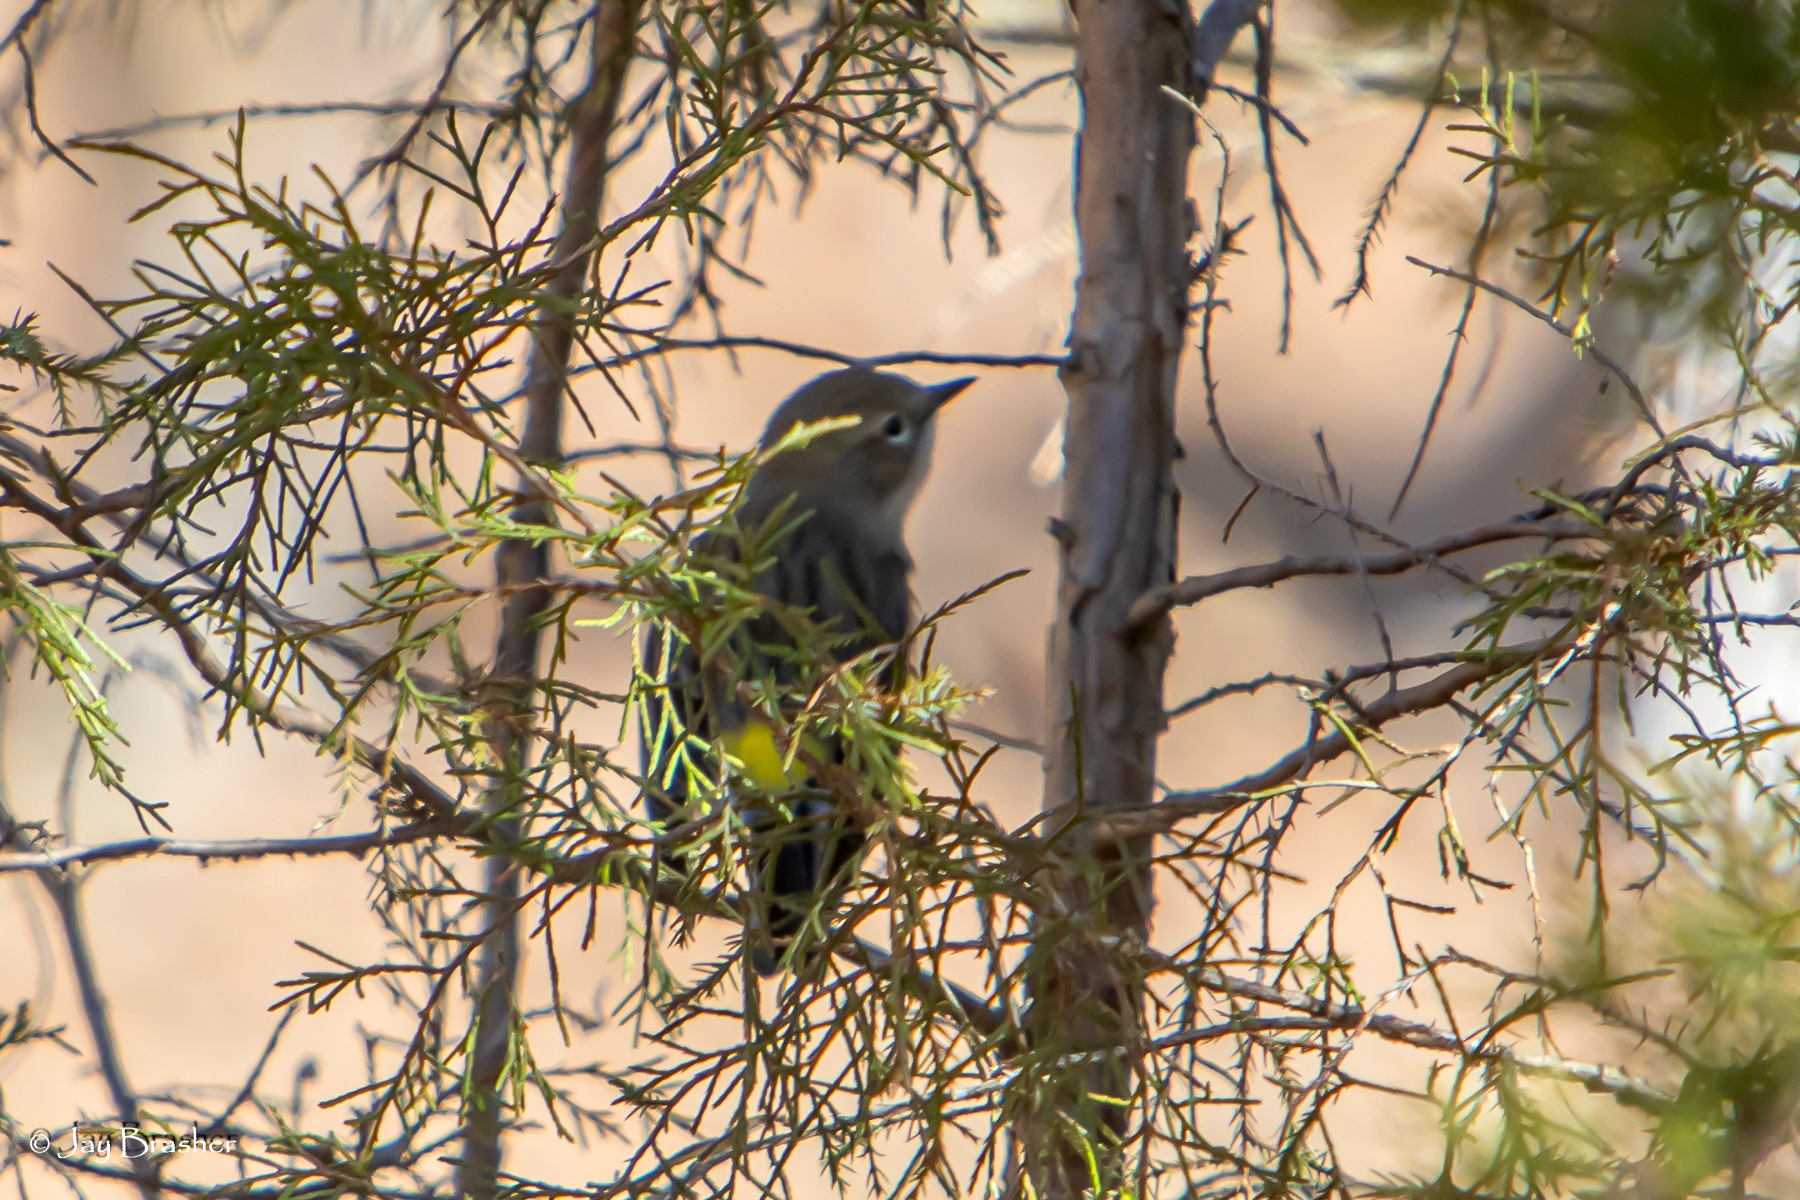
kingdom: Animalia
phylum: Chordata
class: Aves
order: Passeriformes
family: Parulidae
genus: Setophaga
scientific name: Setophaga coronata
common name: Myrtle warbler
